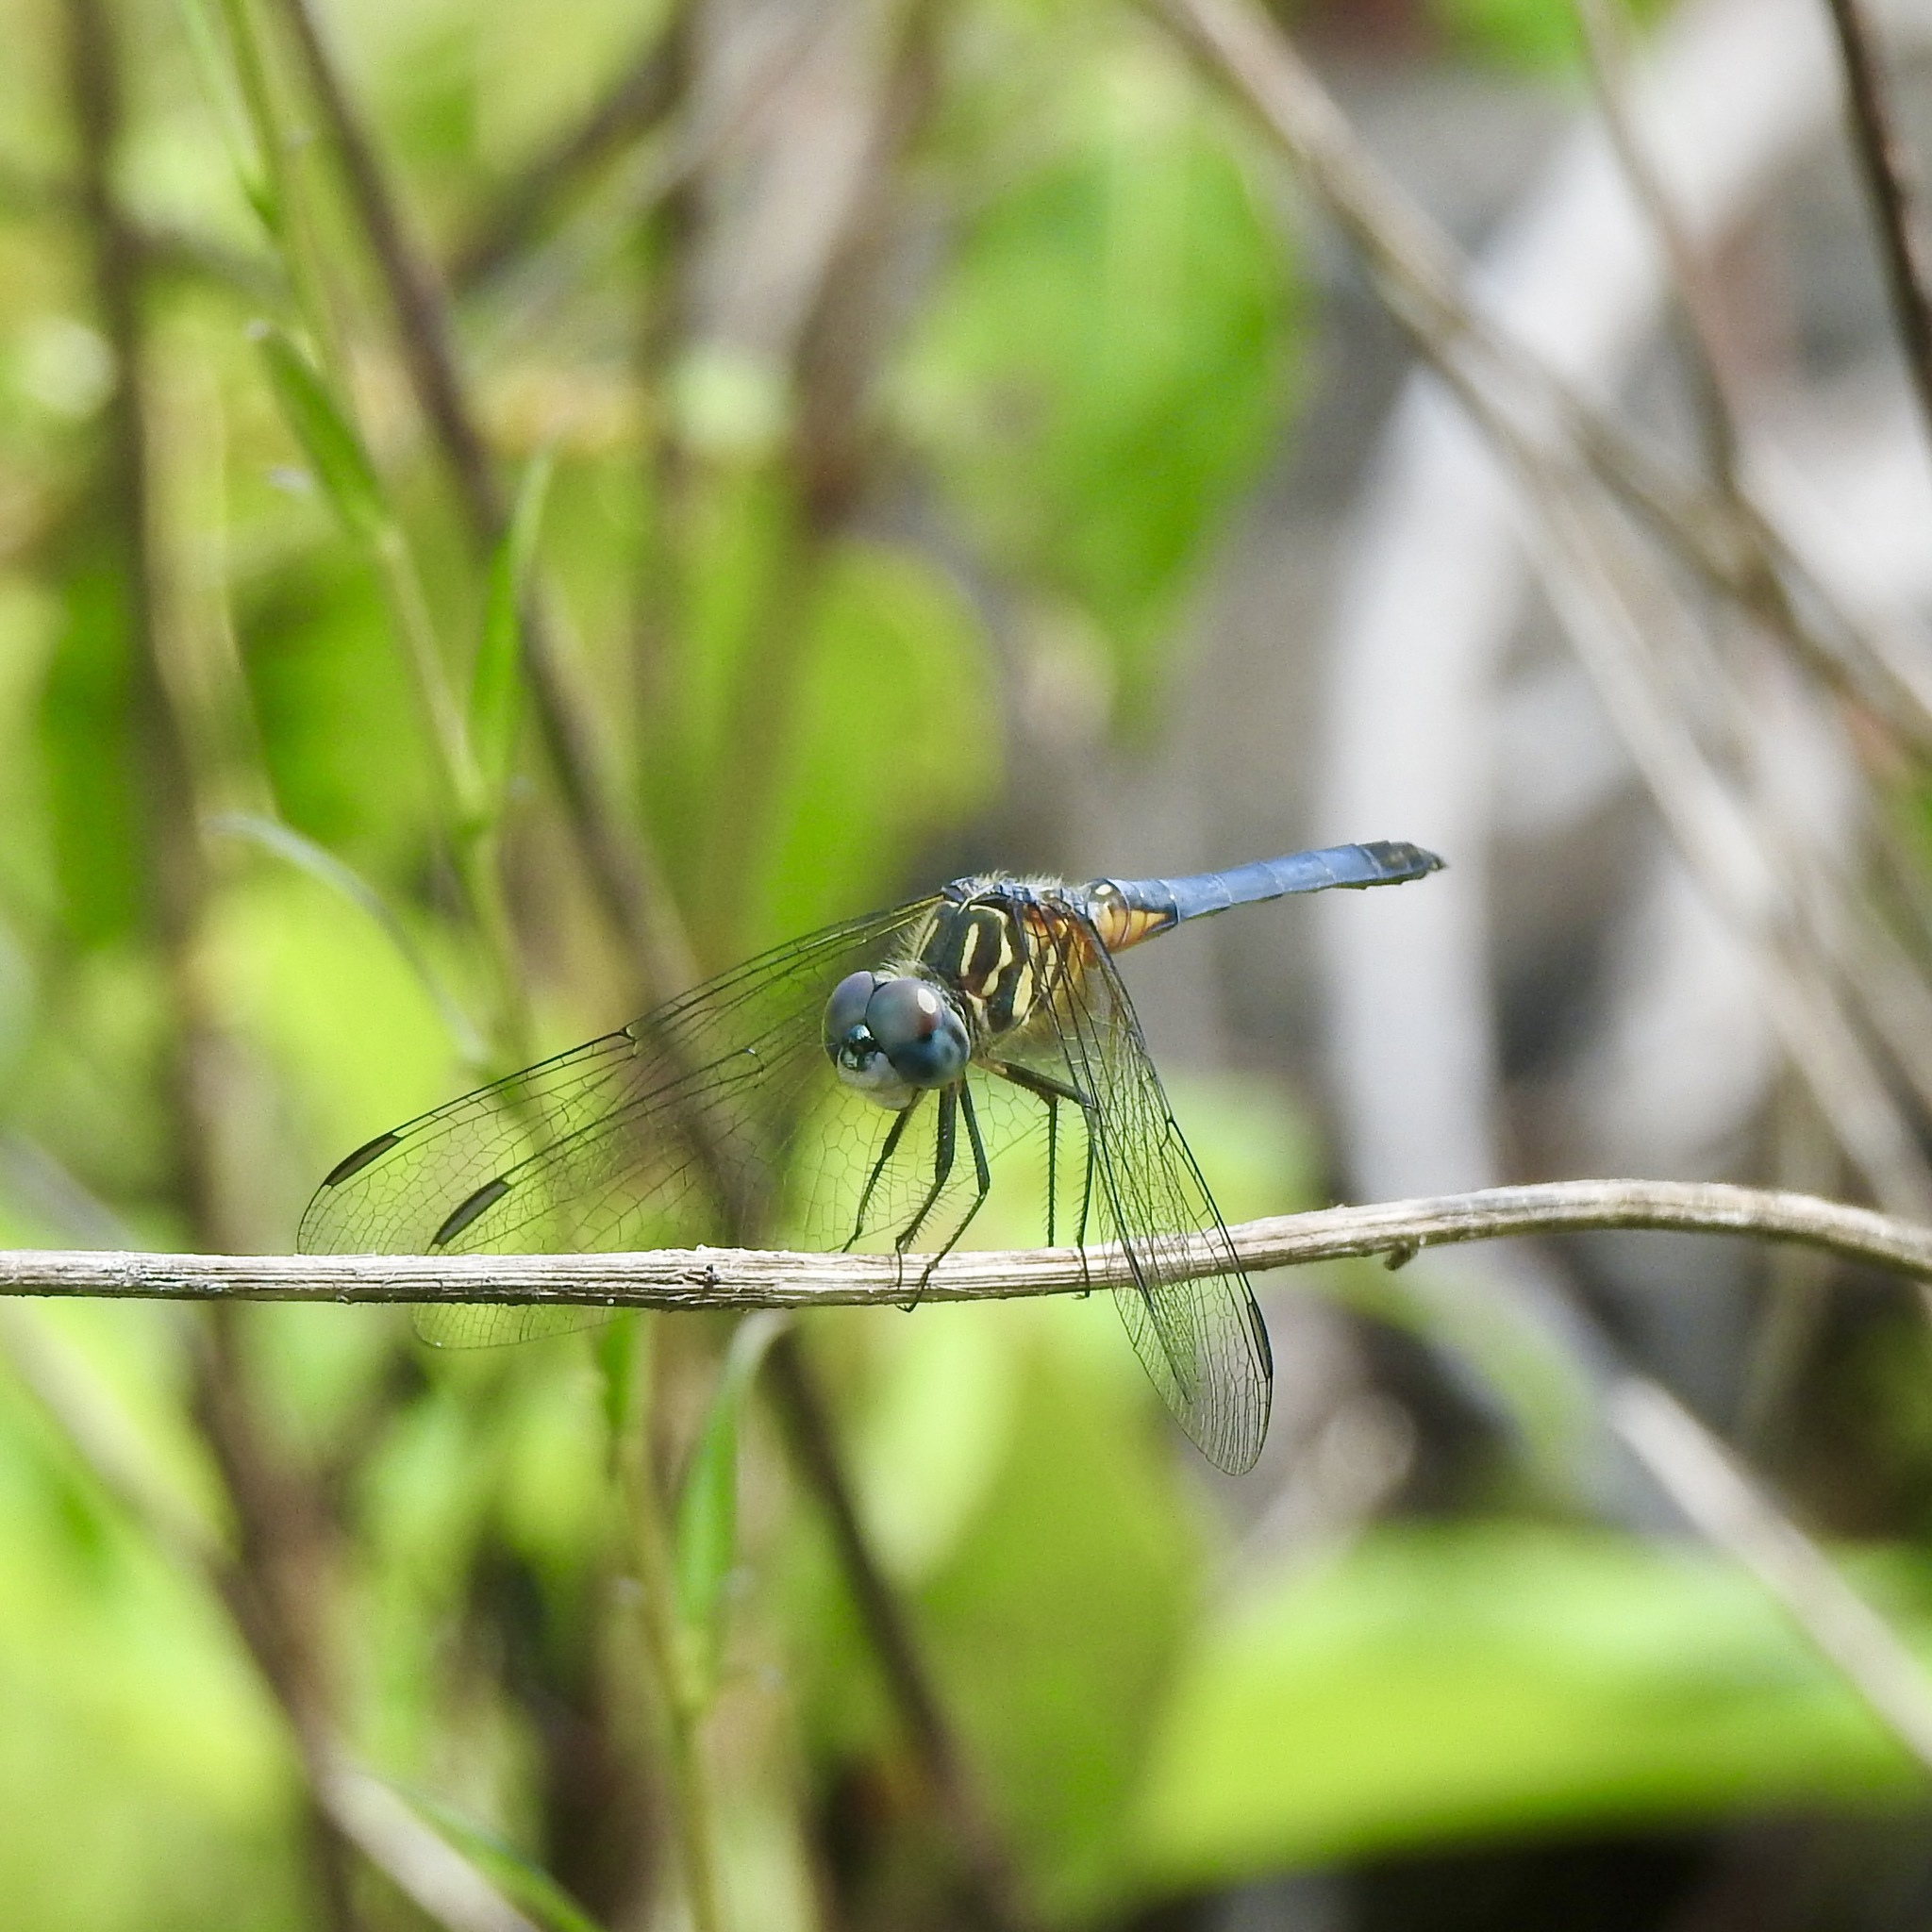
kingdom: Animalia
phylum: Arthropoda
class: Insecta
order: Odonata
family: Libellulidae
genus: Pachydiplax
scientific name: Pachydiplax longipennis
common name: Blue dasher
